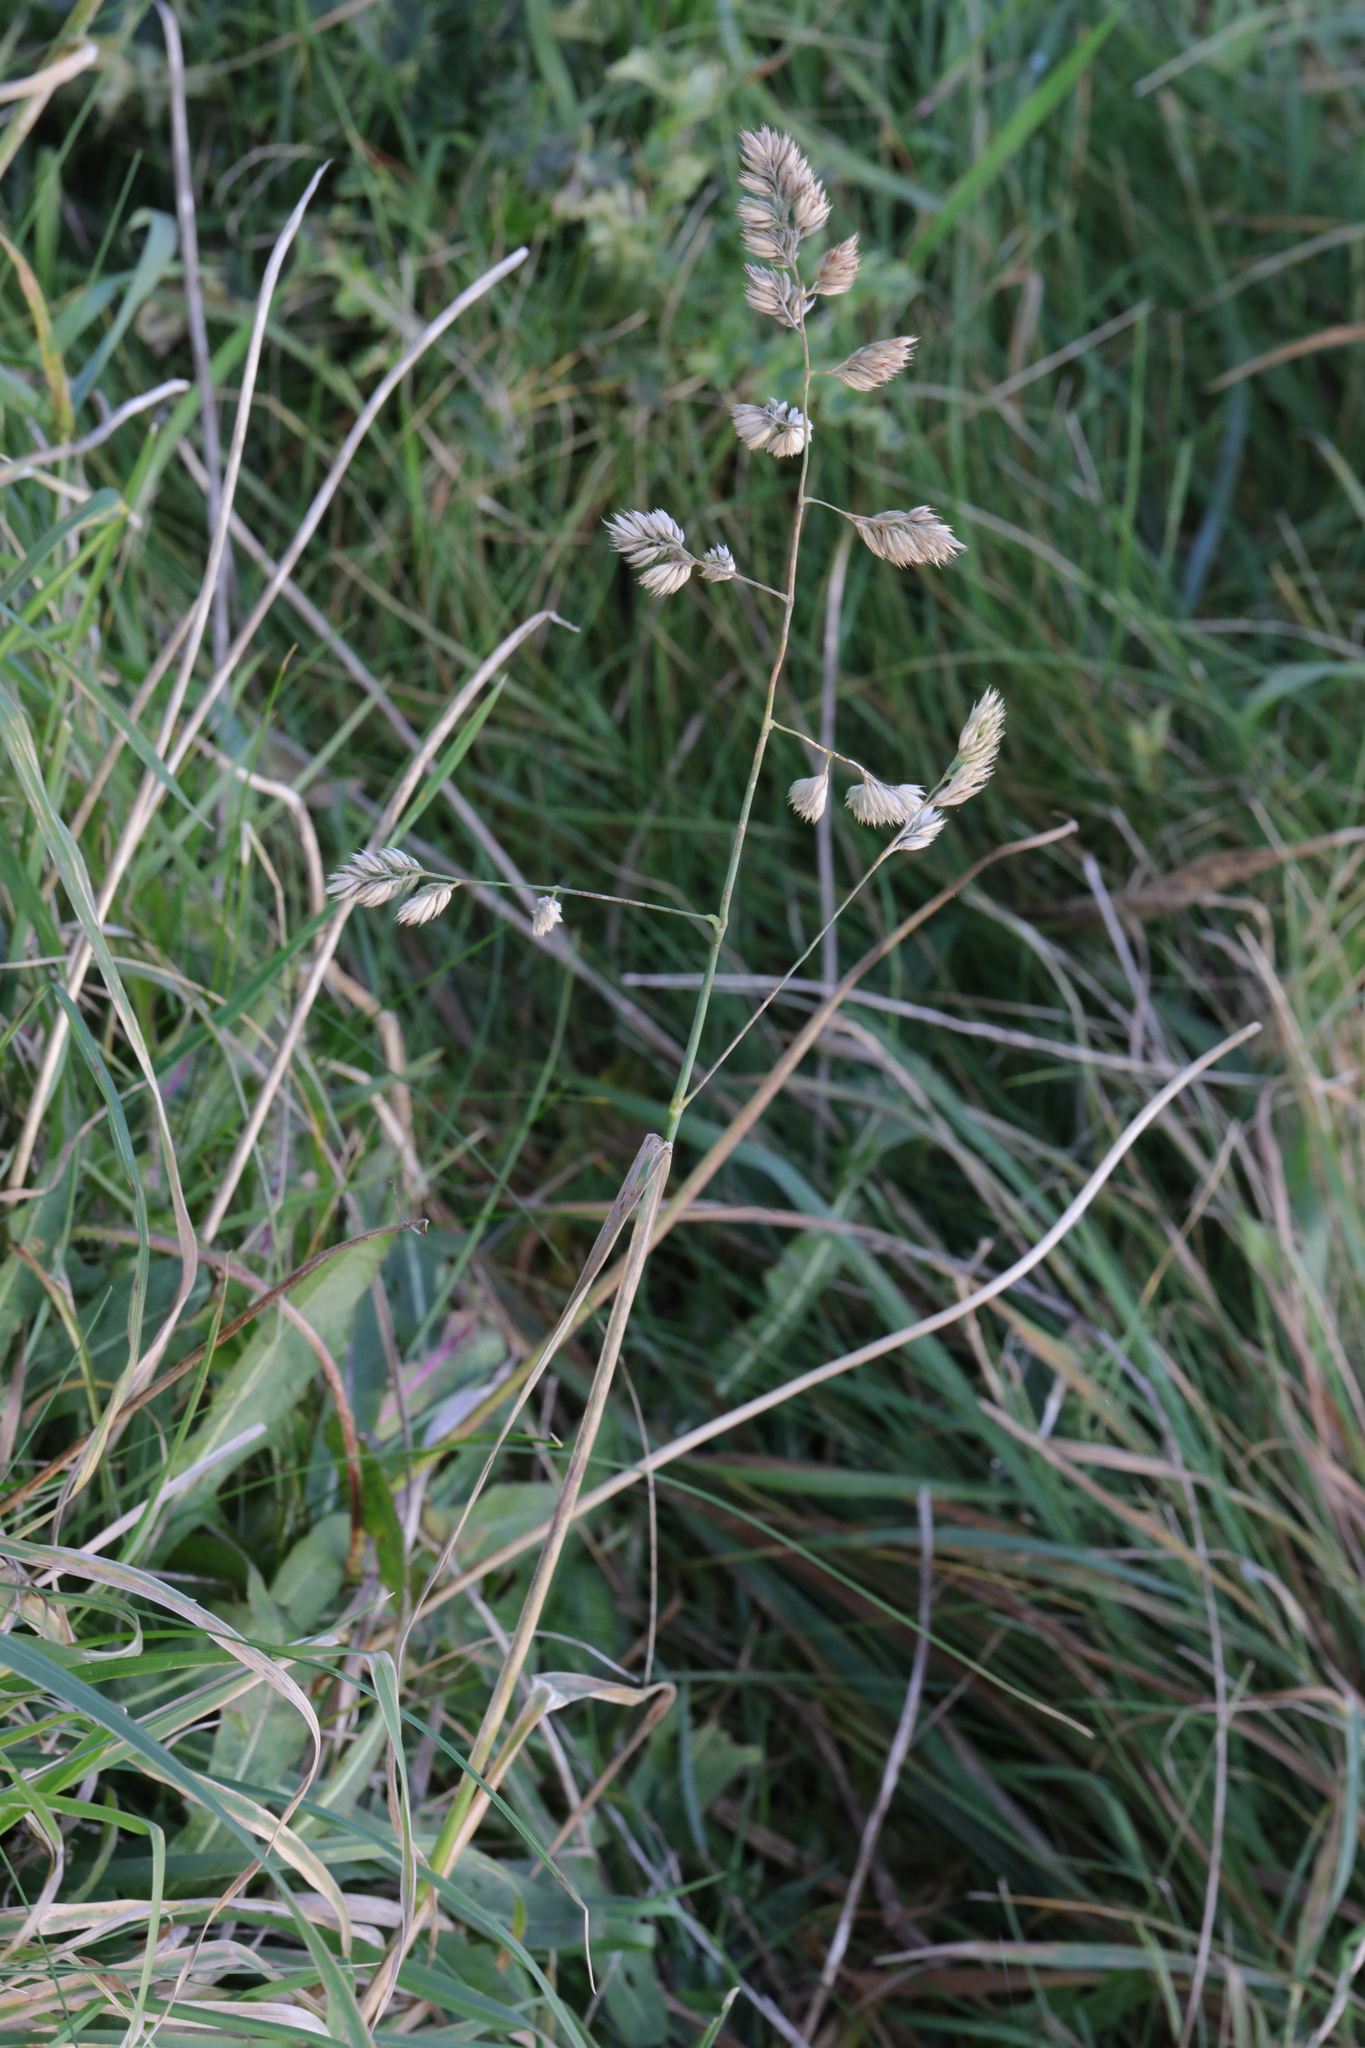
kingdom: Plantae
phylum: Tracheophyta
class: Liliopsida
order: Poales
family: Poaceae
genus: Dactylis
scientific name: Dactylis glomerata
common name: Orchardgrass
